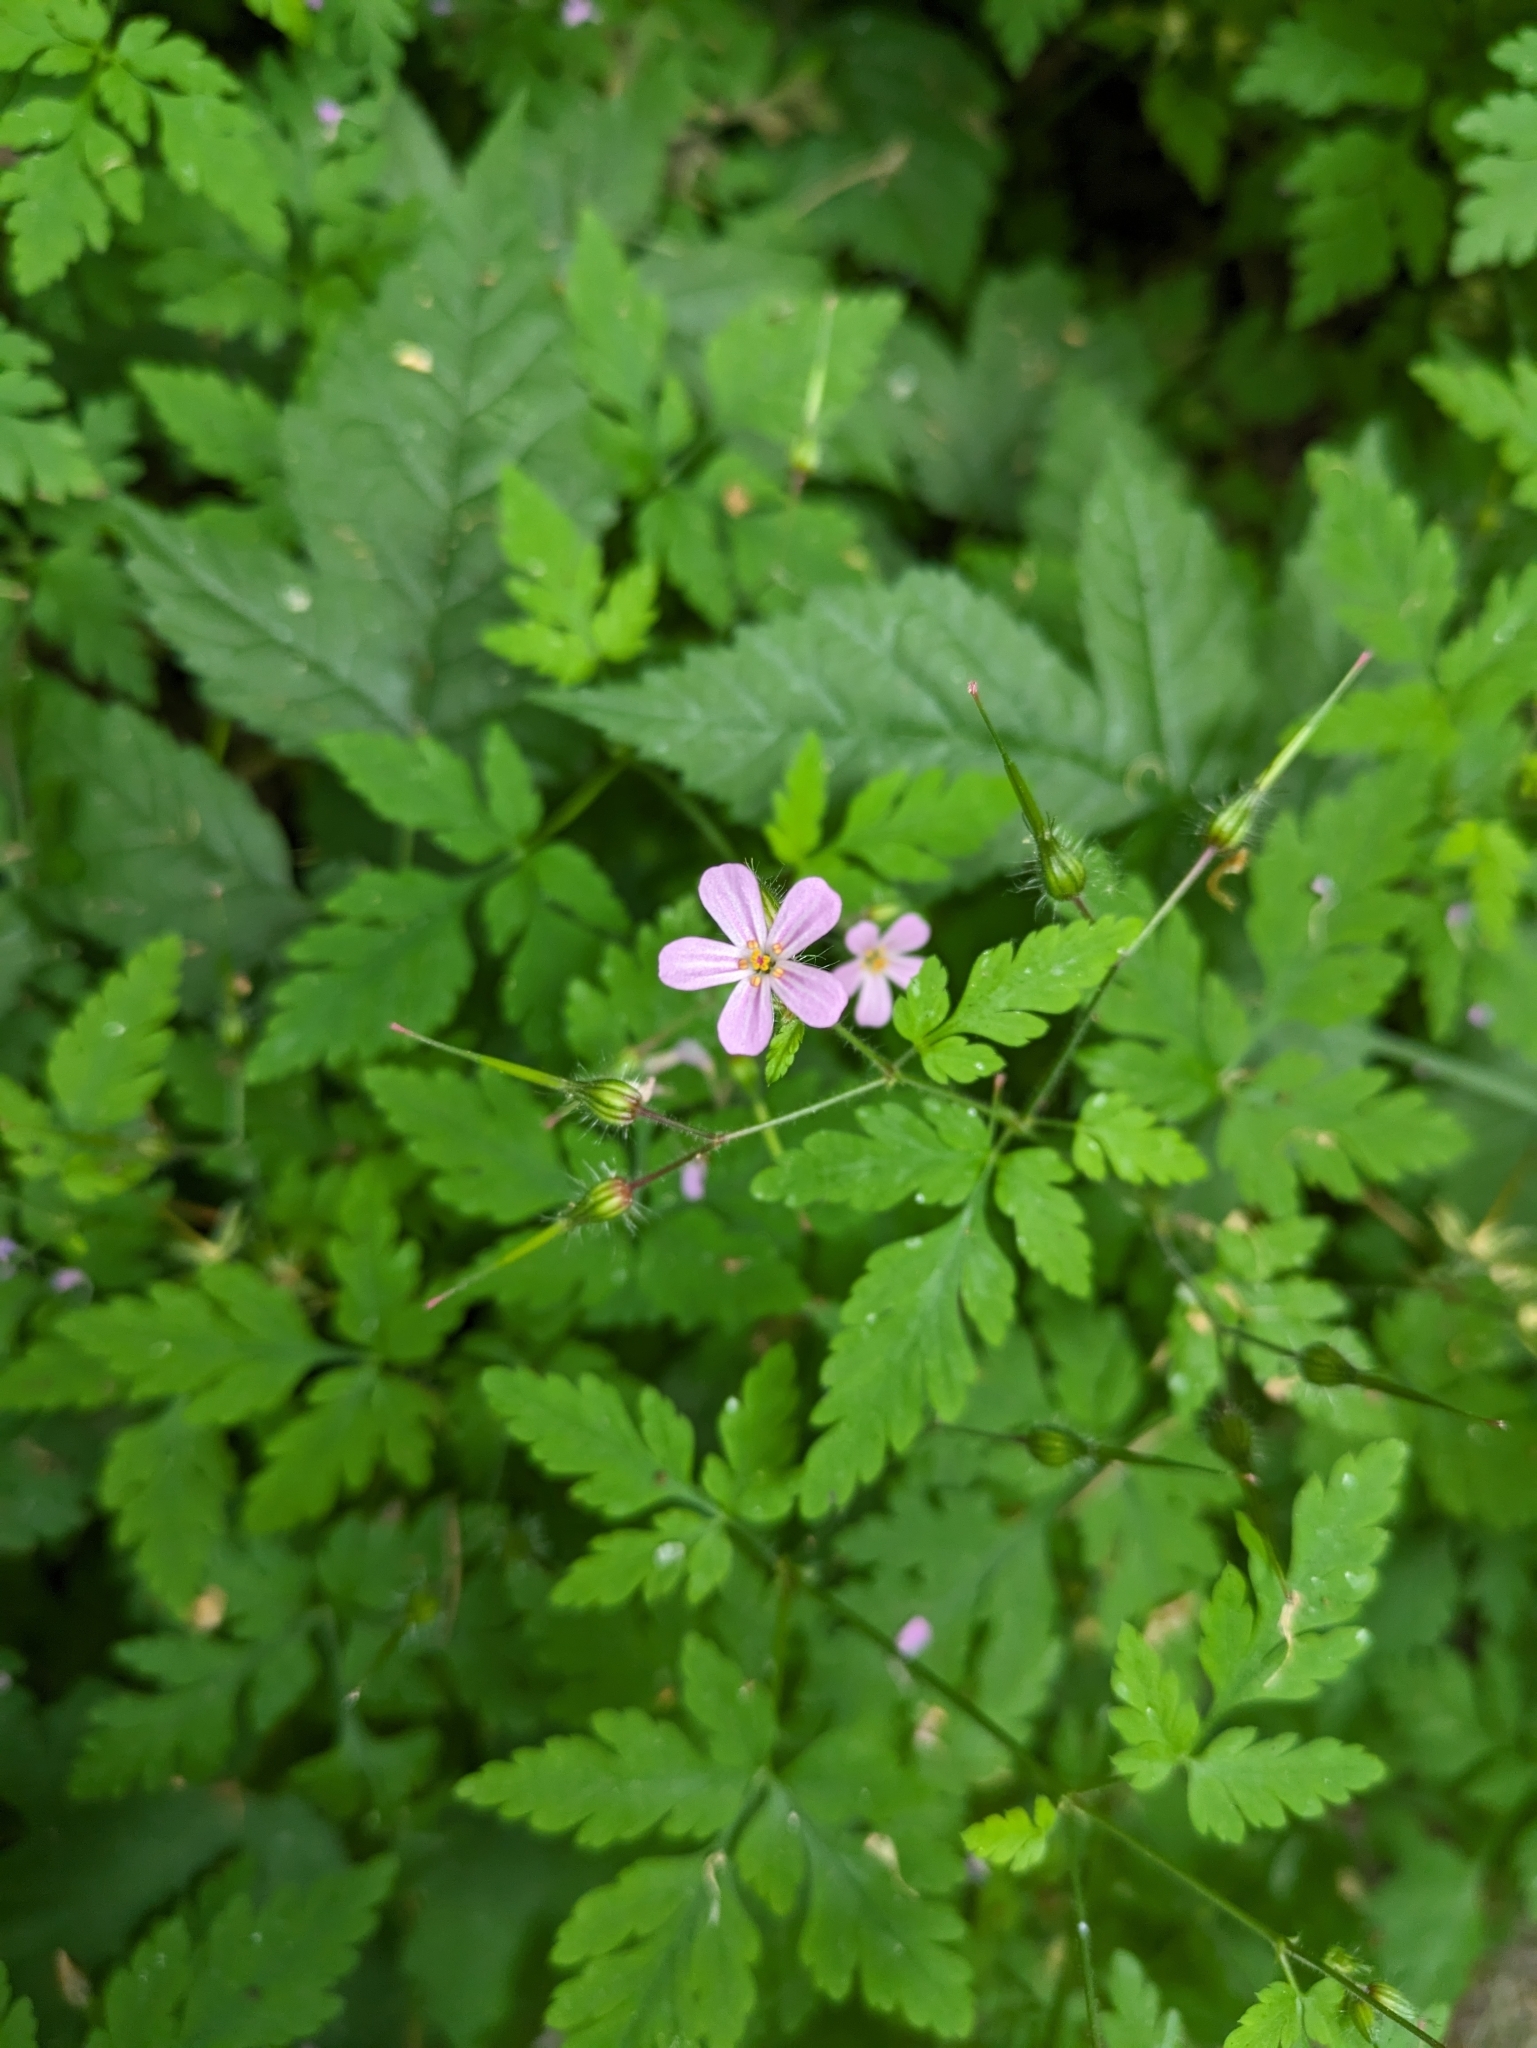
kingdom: Plantae
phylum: Tracheophyta
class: Magnoliopsida
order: Geraniales
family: Geraniaceae
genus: Geranium
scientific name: Geranium robertianum
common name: Herb-robert
